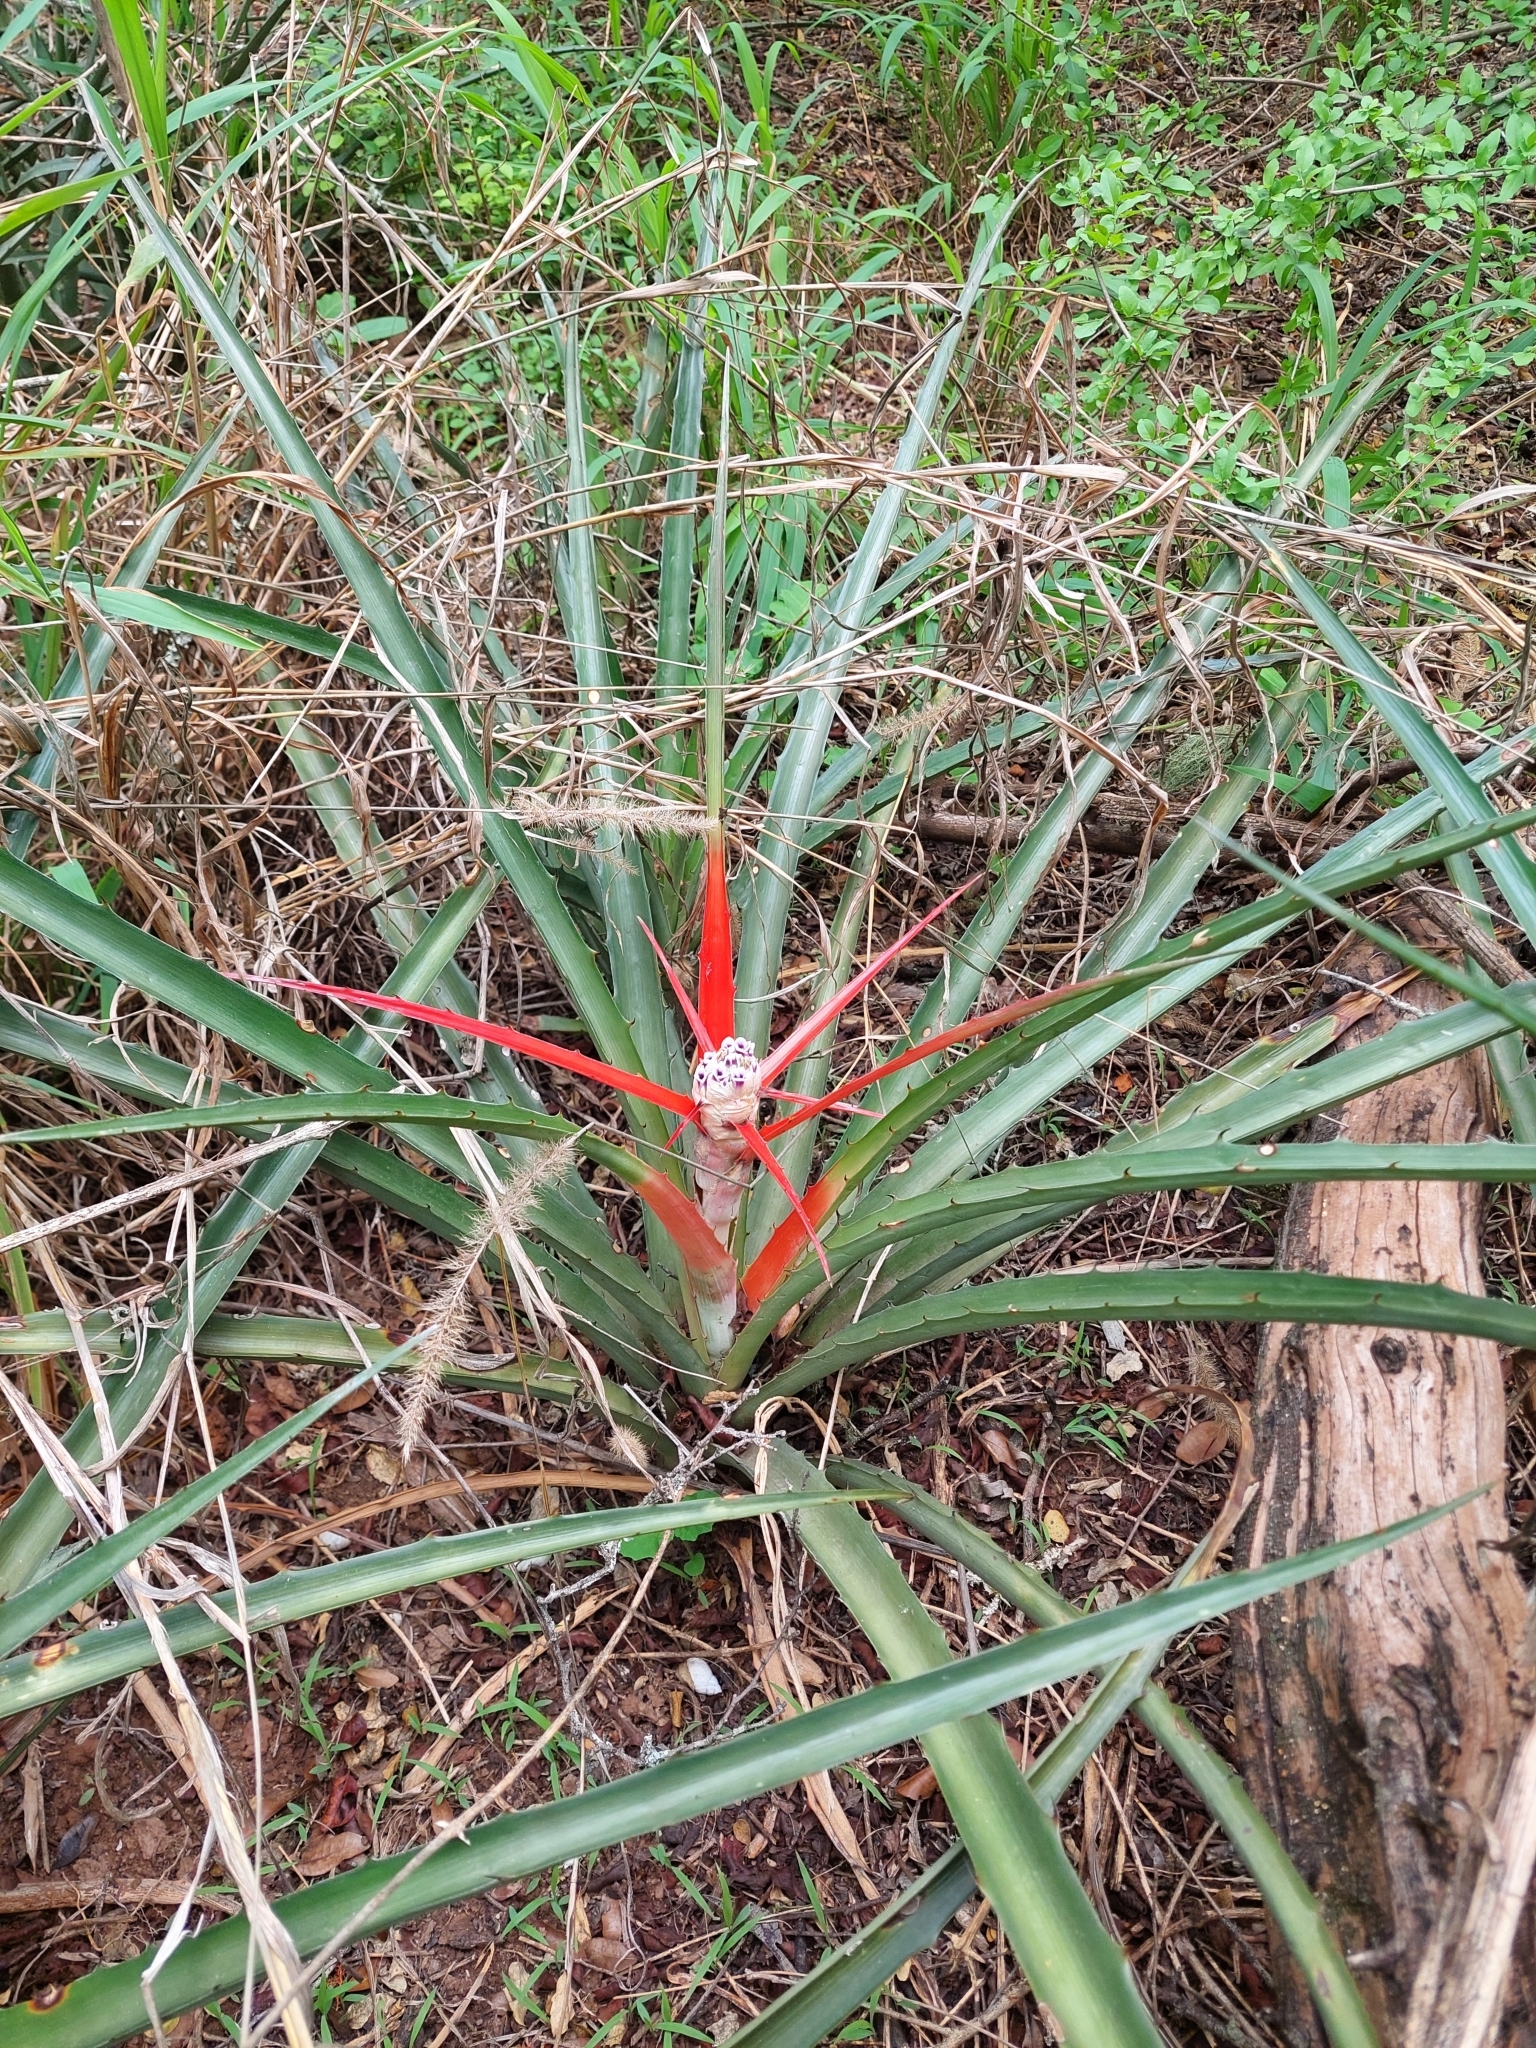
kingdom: Plantae
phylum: Tracheophyta
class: Liliopsida
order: Poales
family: Bromeliaceae
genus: Bromelia
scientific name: Bromelia serra
